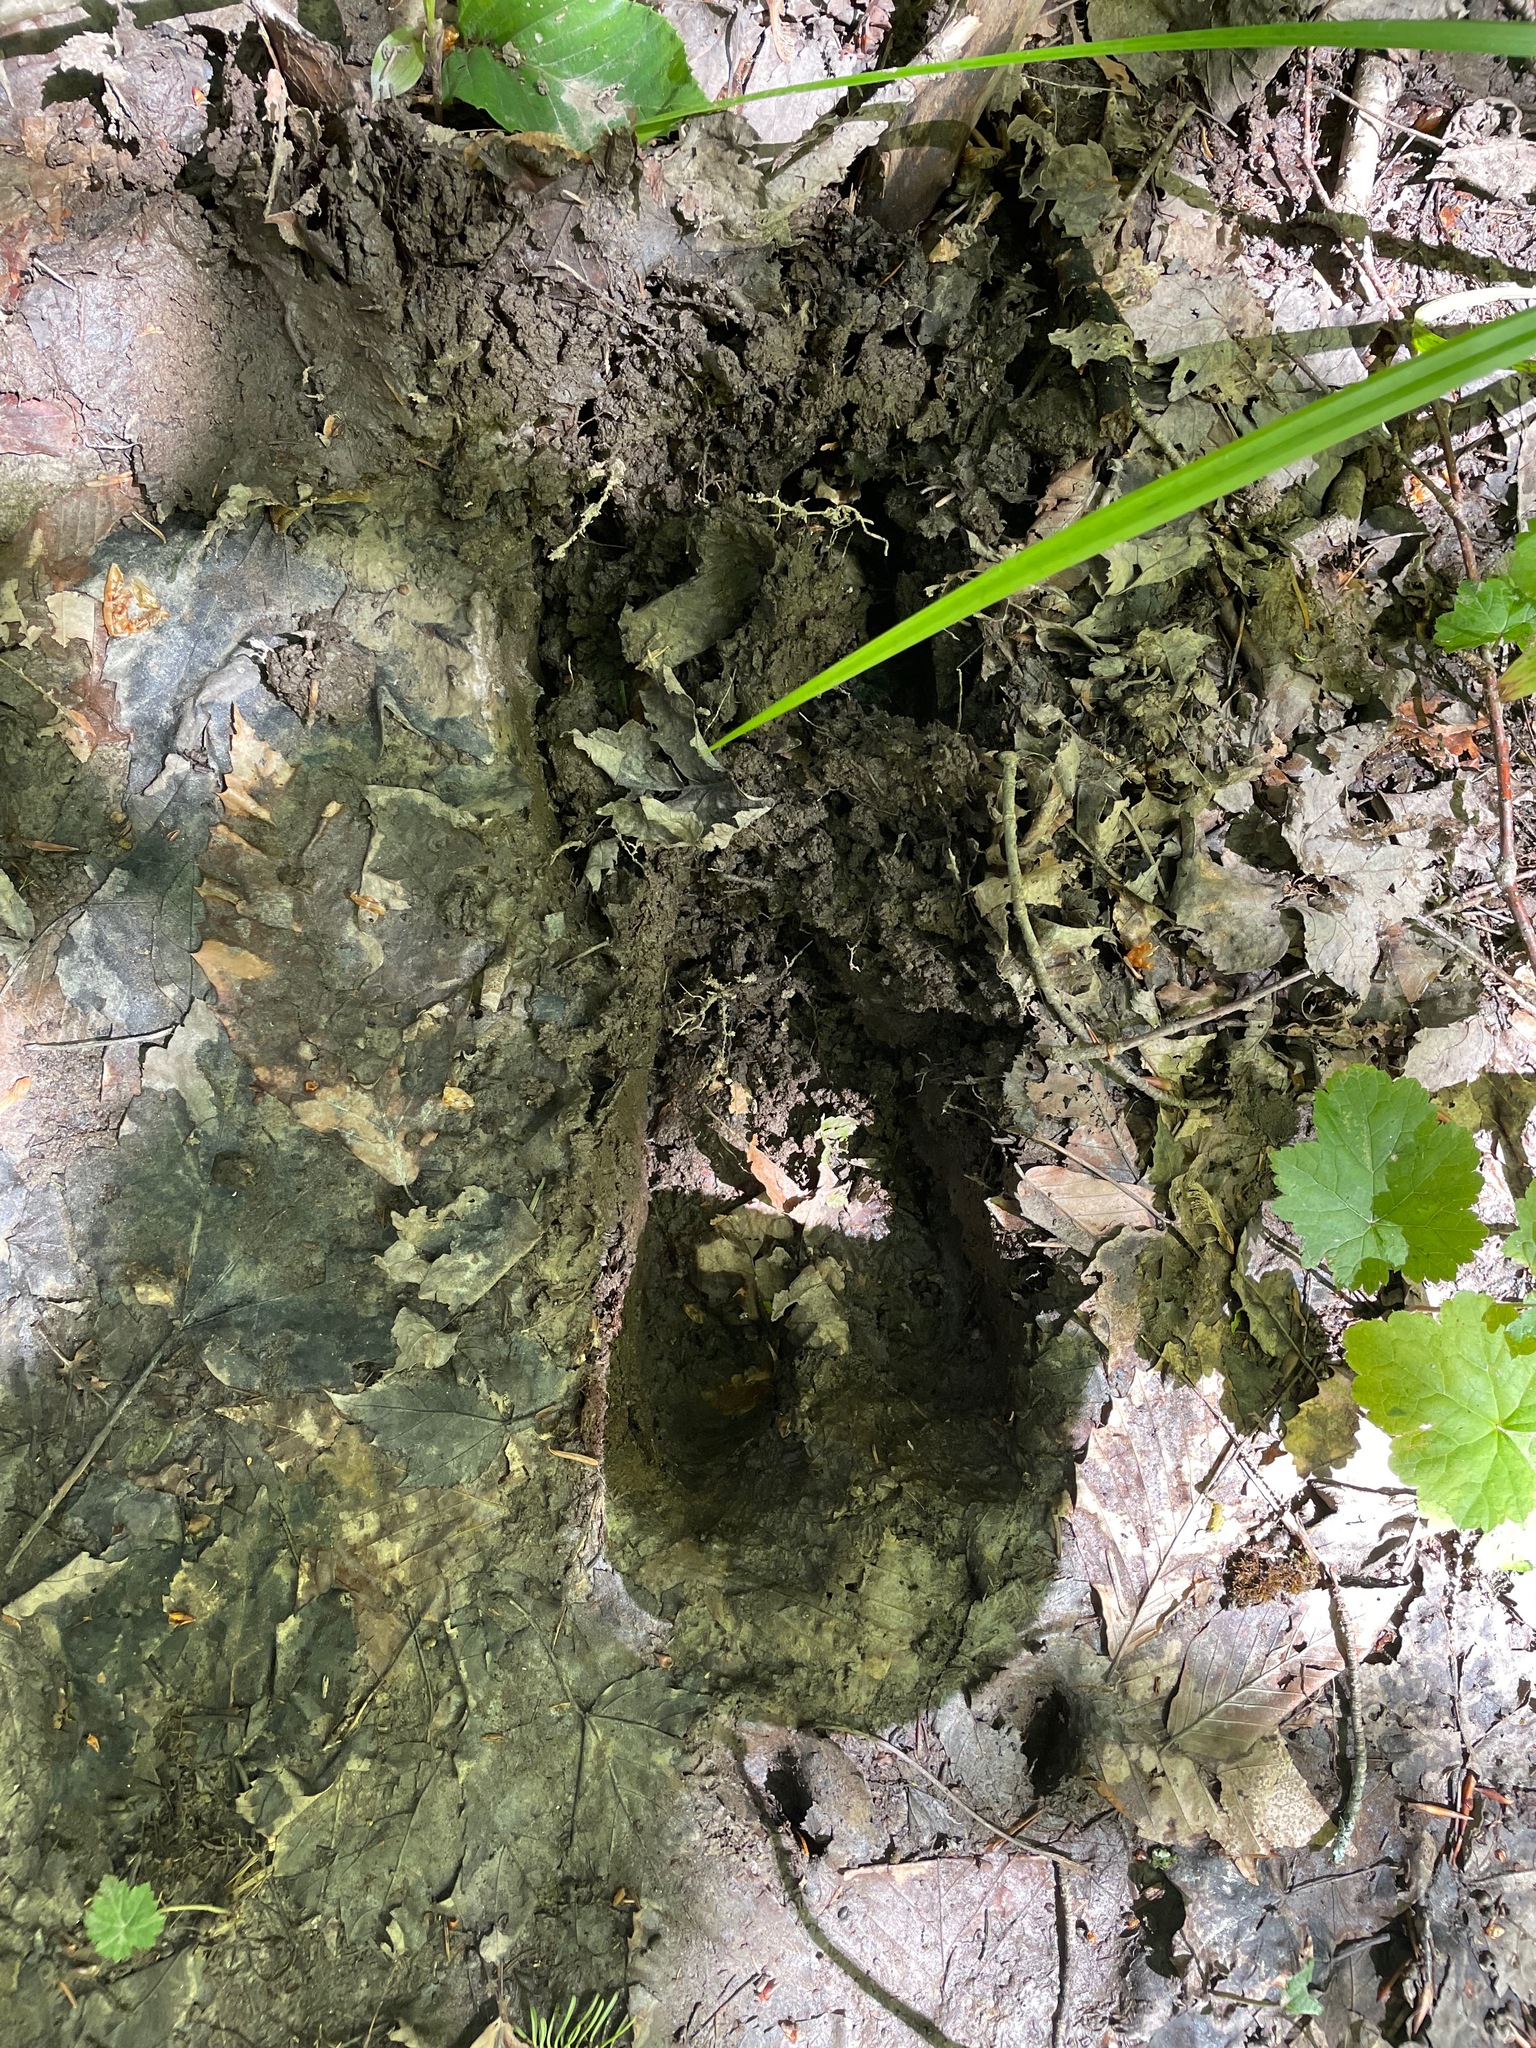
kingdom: Animalia
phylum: Chordata
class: Mammalia
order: Artiodactyla
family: Cervidae
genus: Alces
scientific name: Alces alces
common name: Moose
